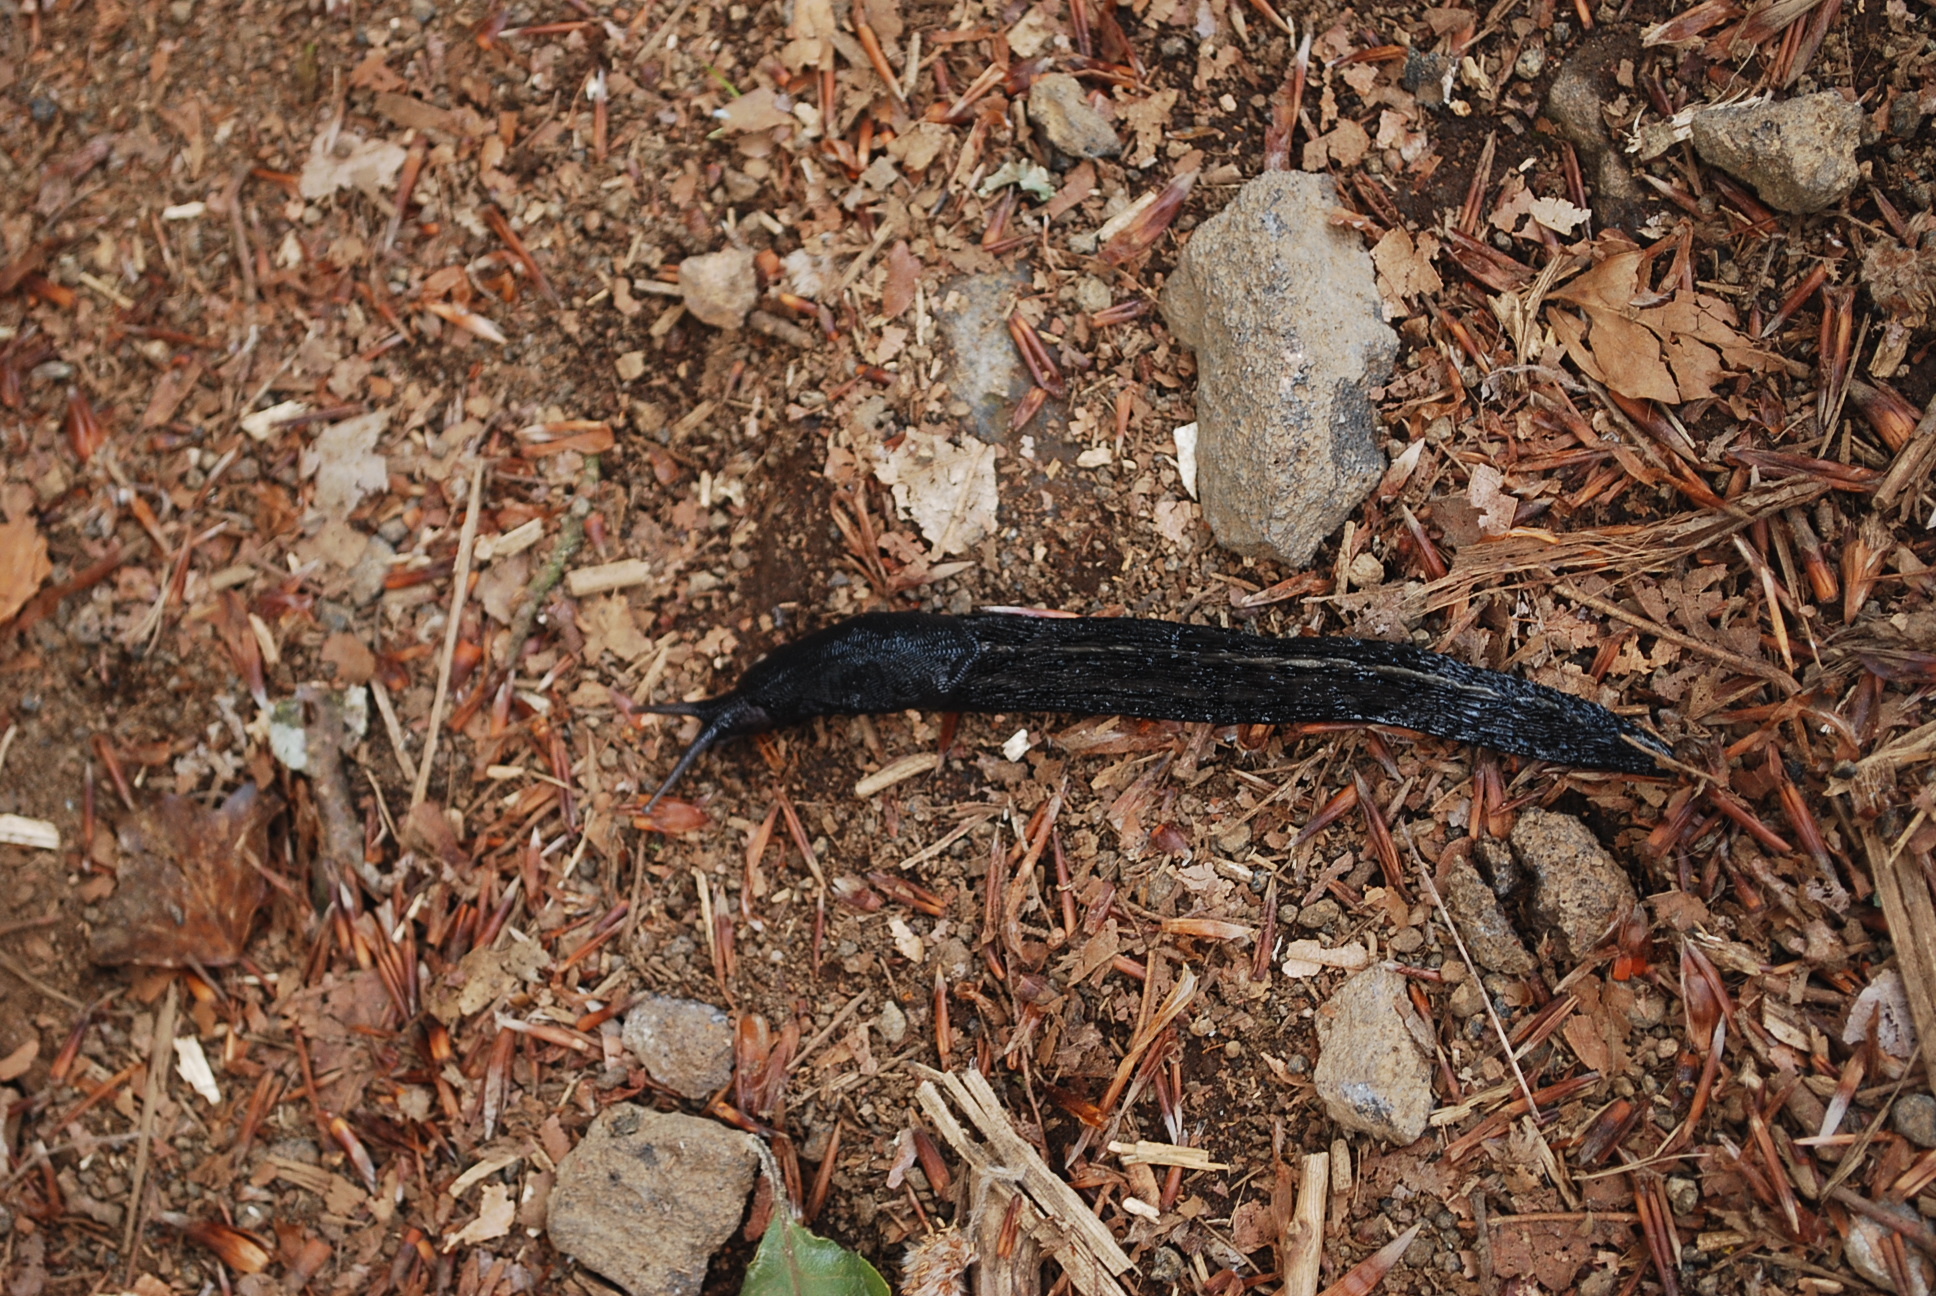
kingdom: Animalia
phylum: Mollusca
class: Gastropoda
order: Stylommatophora
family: Limacidae
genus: Limax
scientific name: Limax cinereoniger
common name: Ash-black slug
